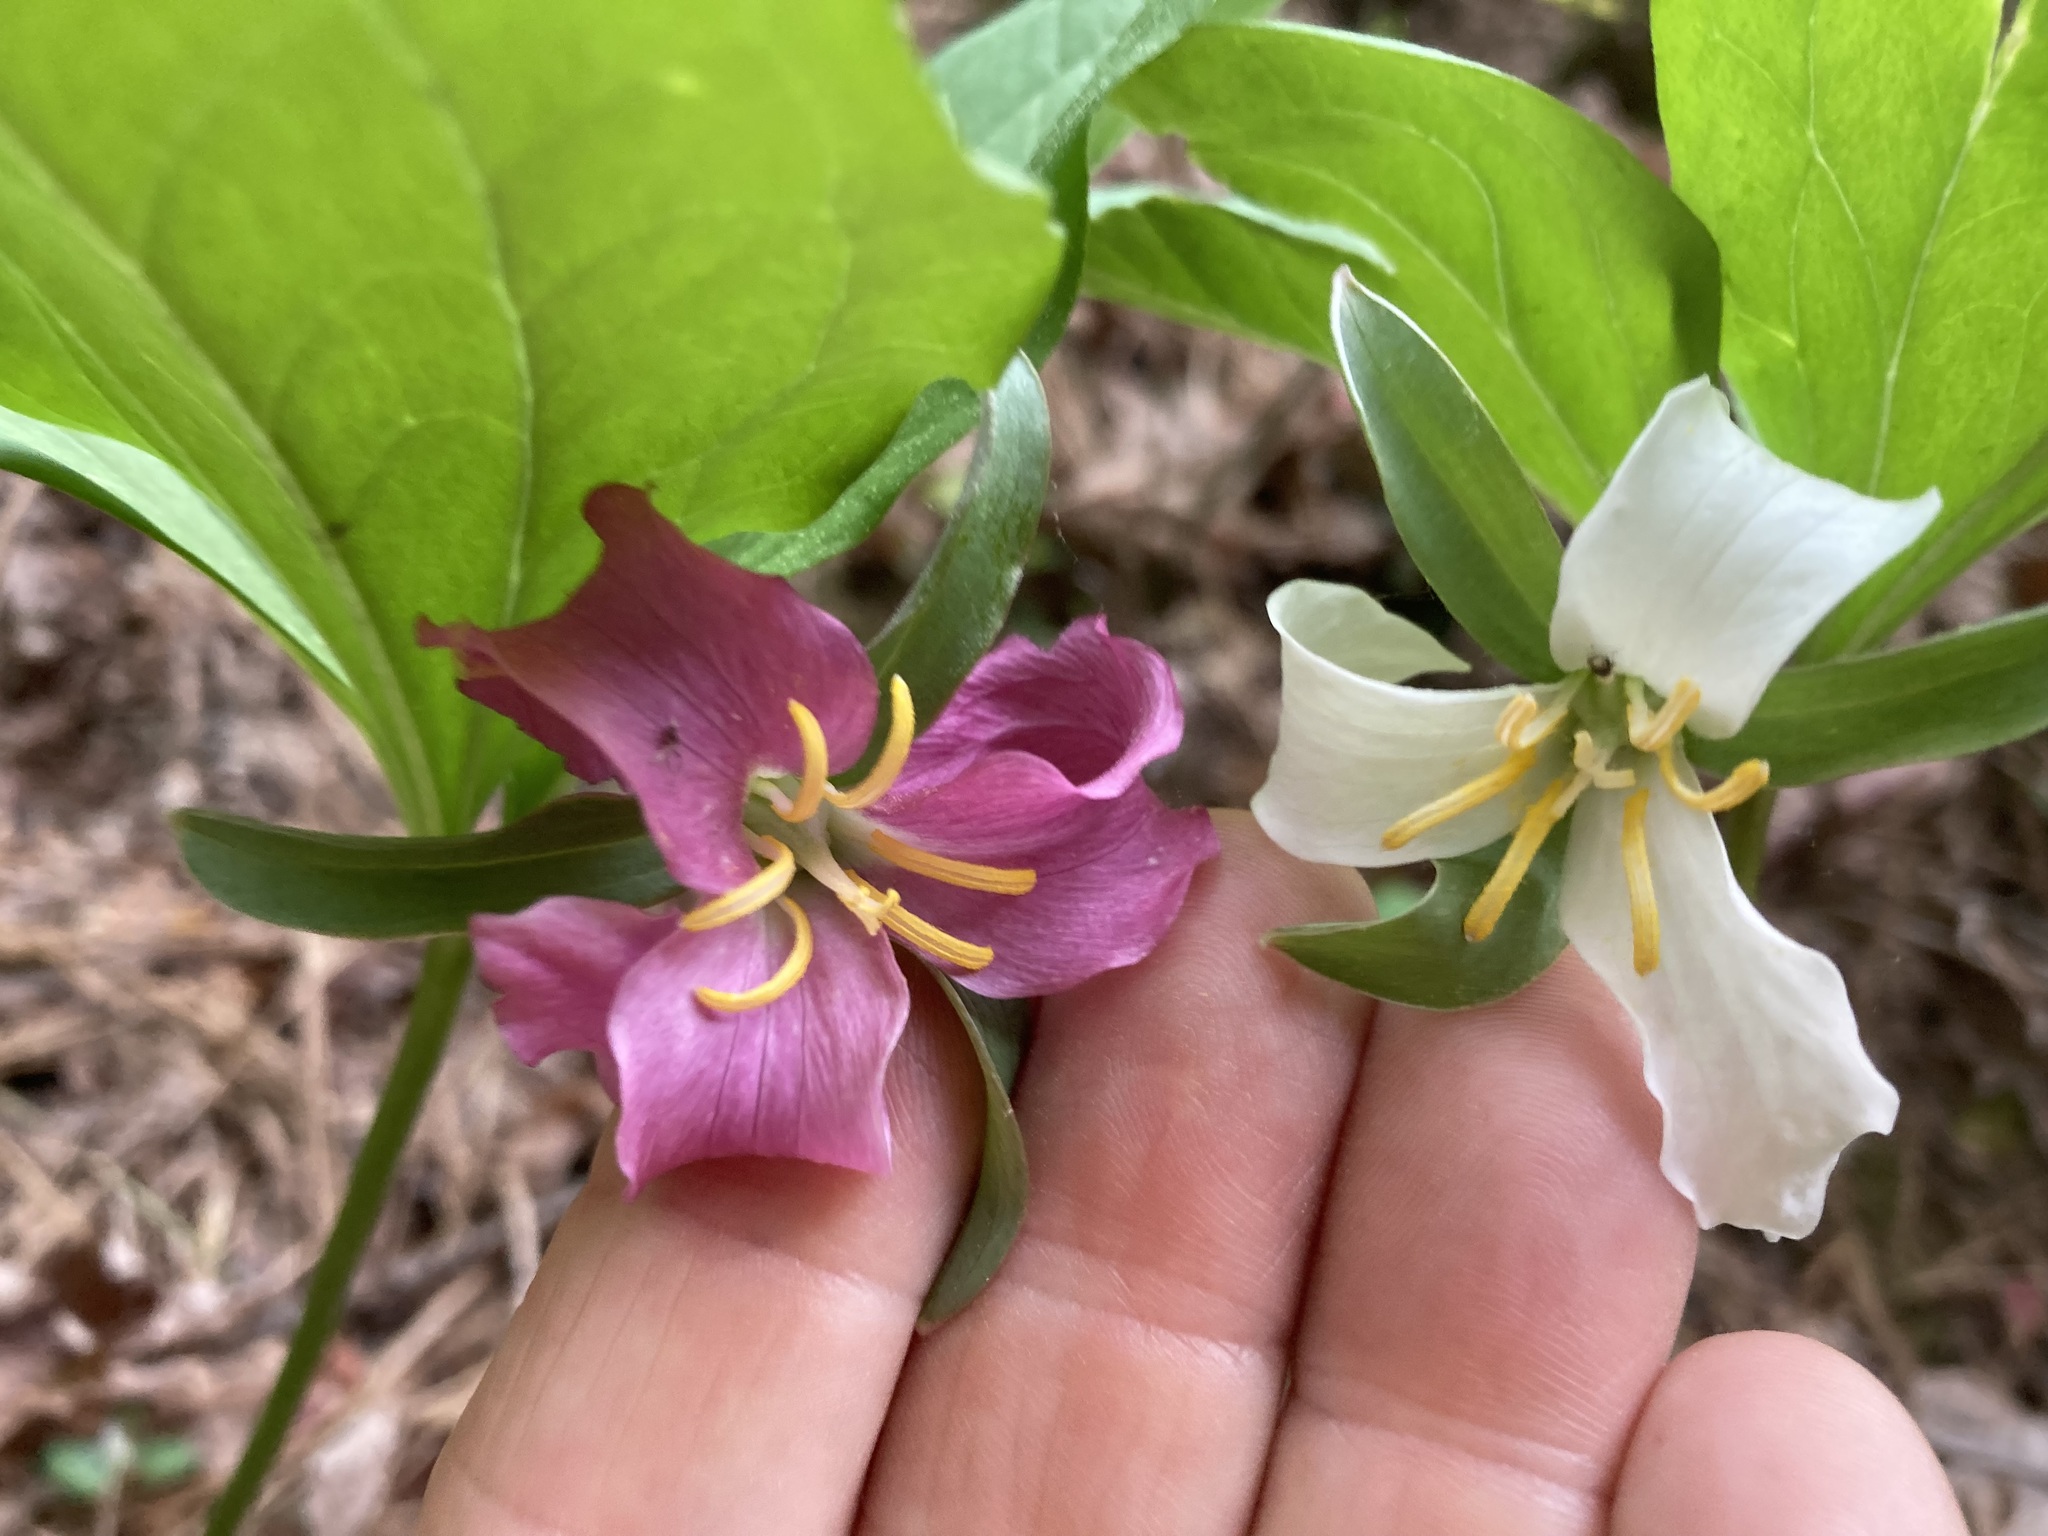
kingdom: Plantae
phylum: Tracheophyta
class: Liliopsida
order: Liliales
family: Melanthiaceae
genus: Trillium
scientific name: Trillium catesbaei
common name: Bashful trillium
